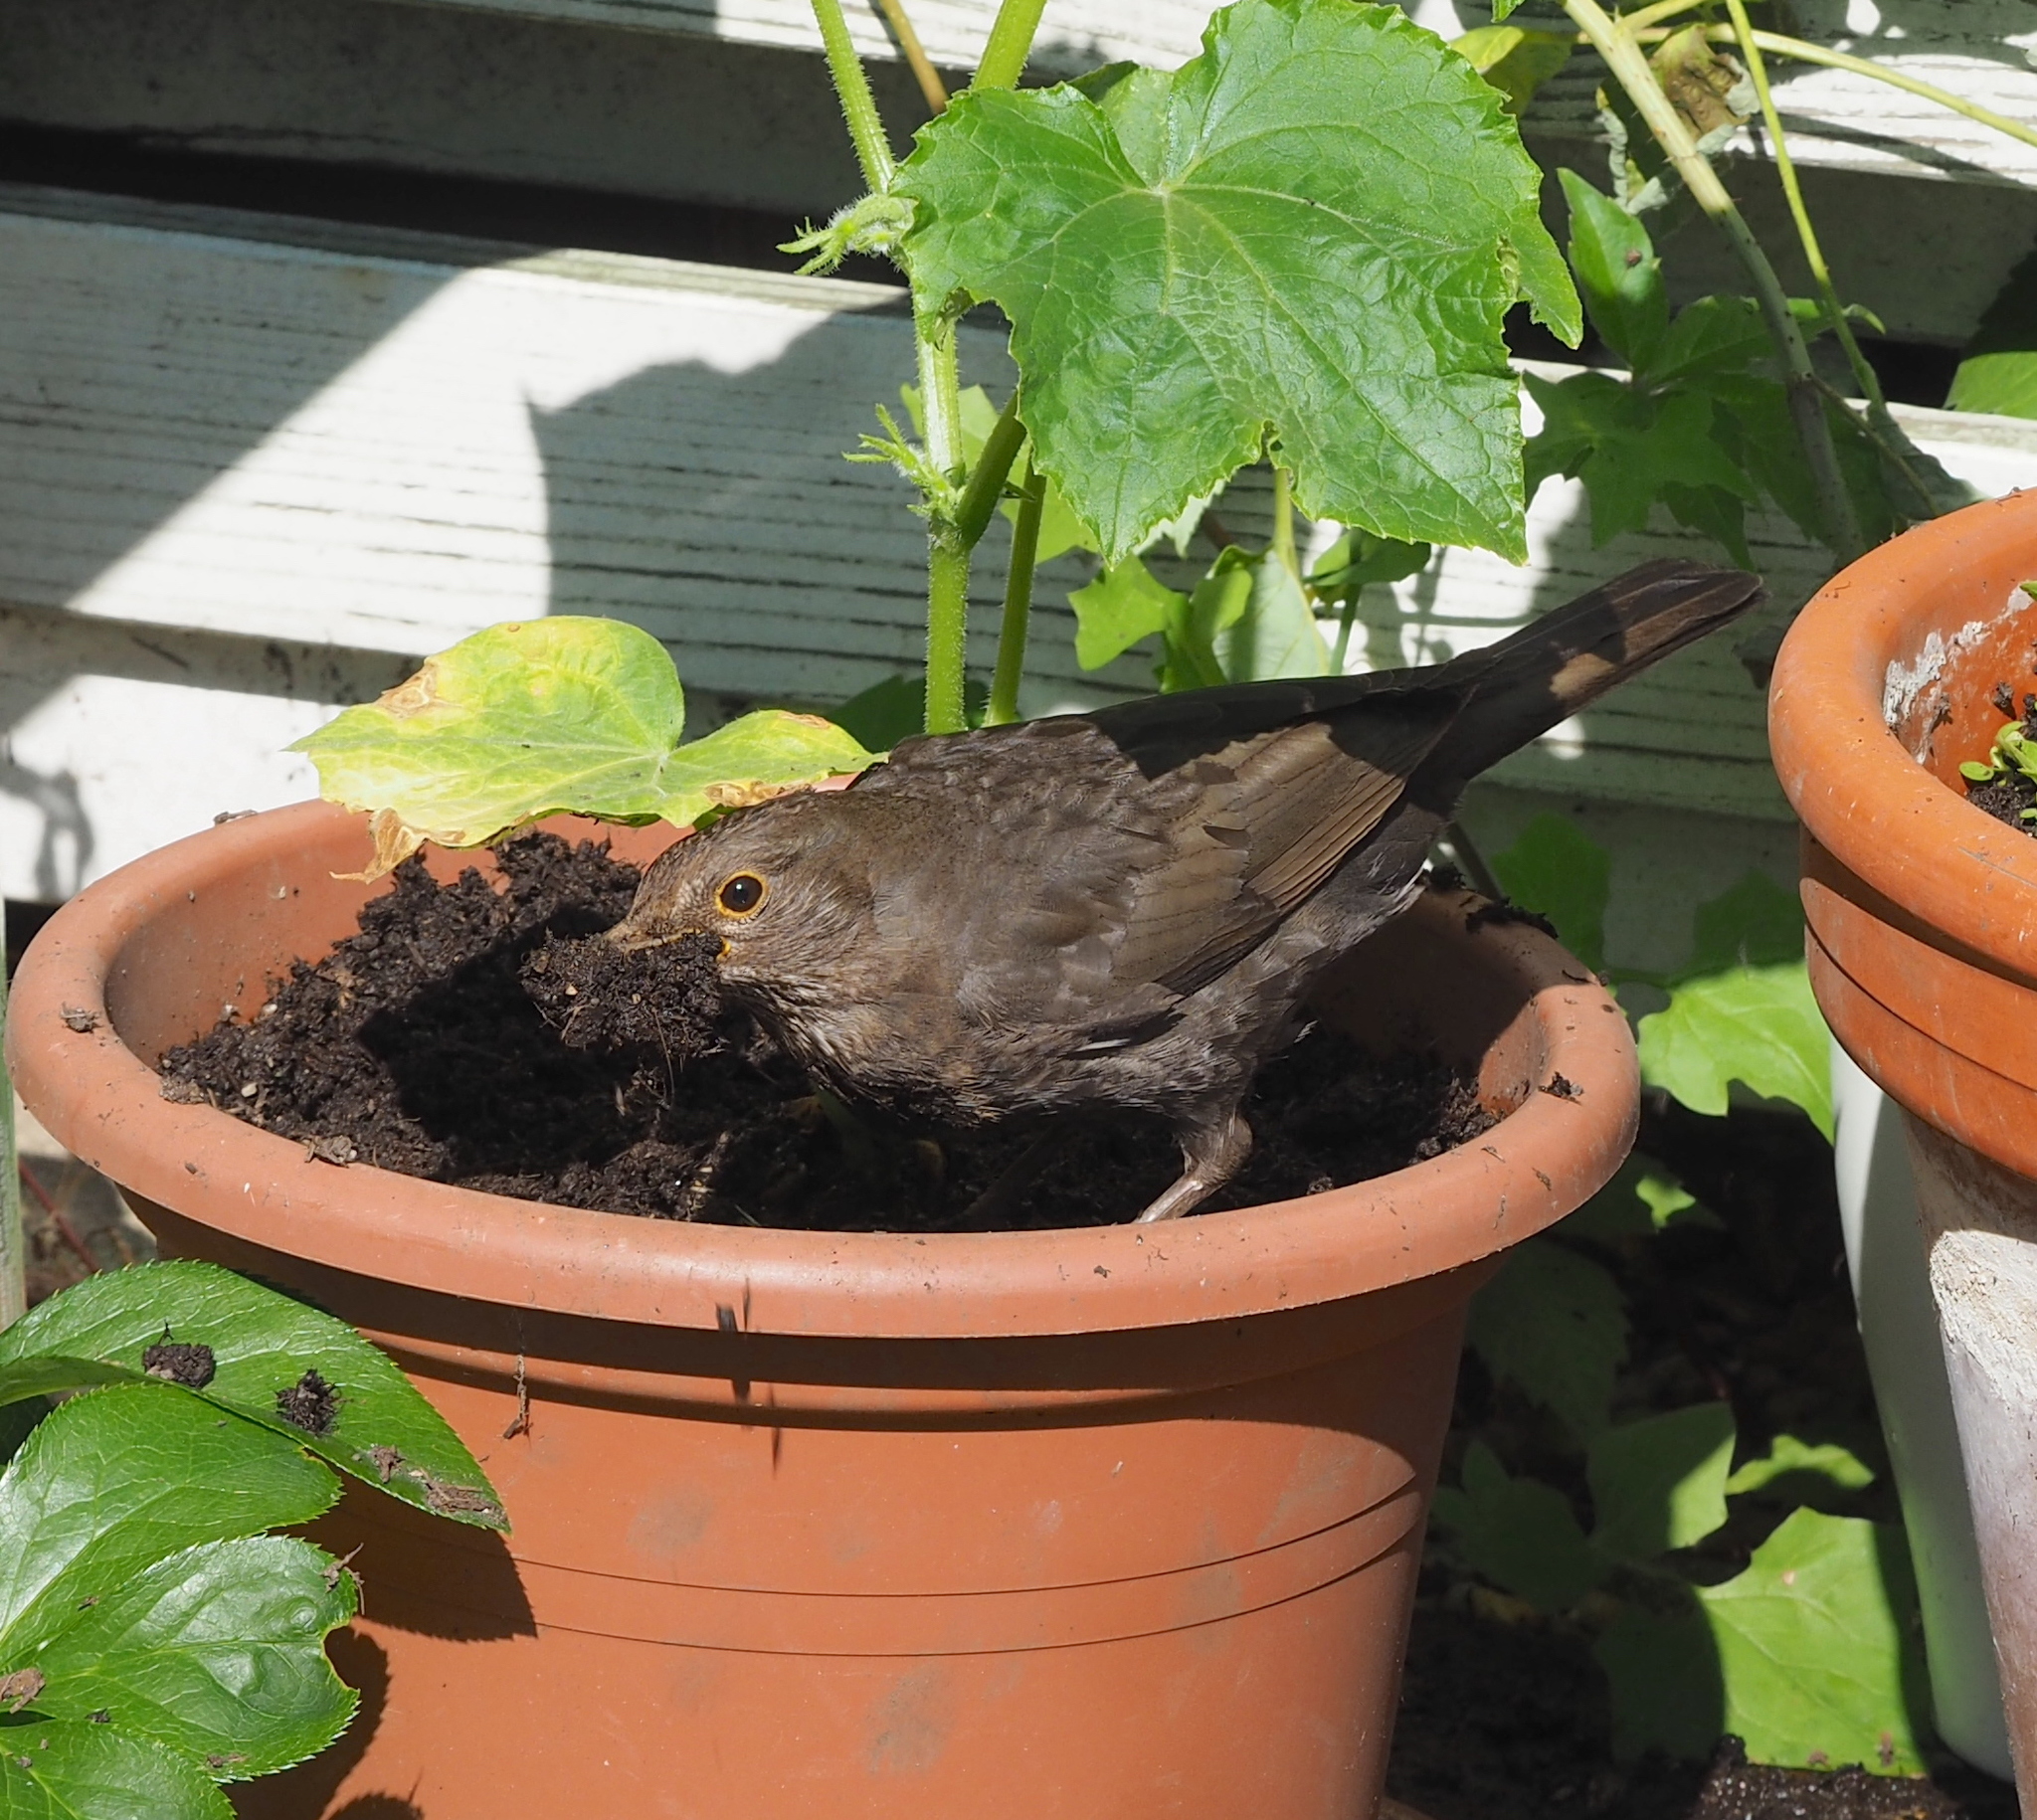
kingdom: Animalia
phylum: Chordata
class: Aves
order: Passeriformes
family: Turdidae
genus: Turdus
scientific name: Turdus merula
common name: Common blackbird
